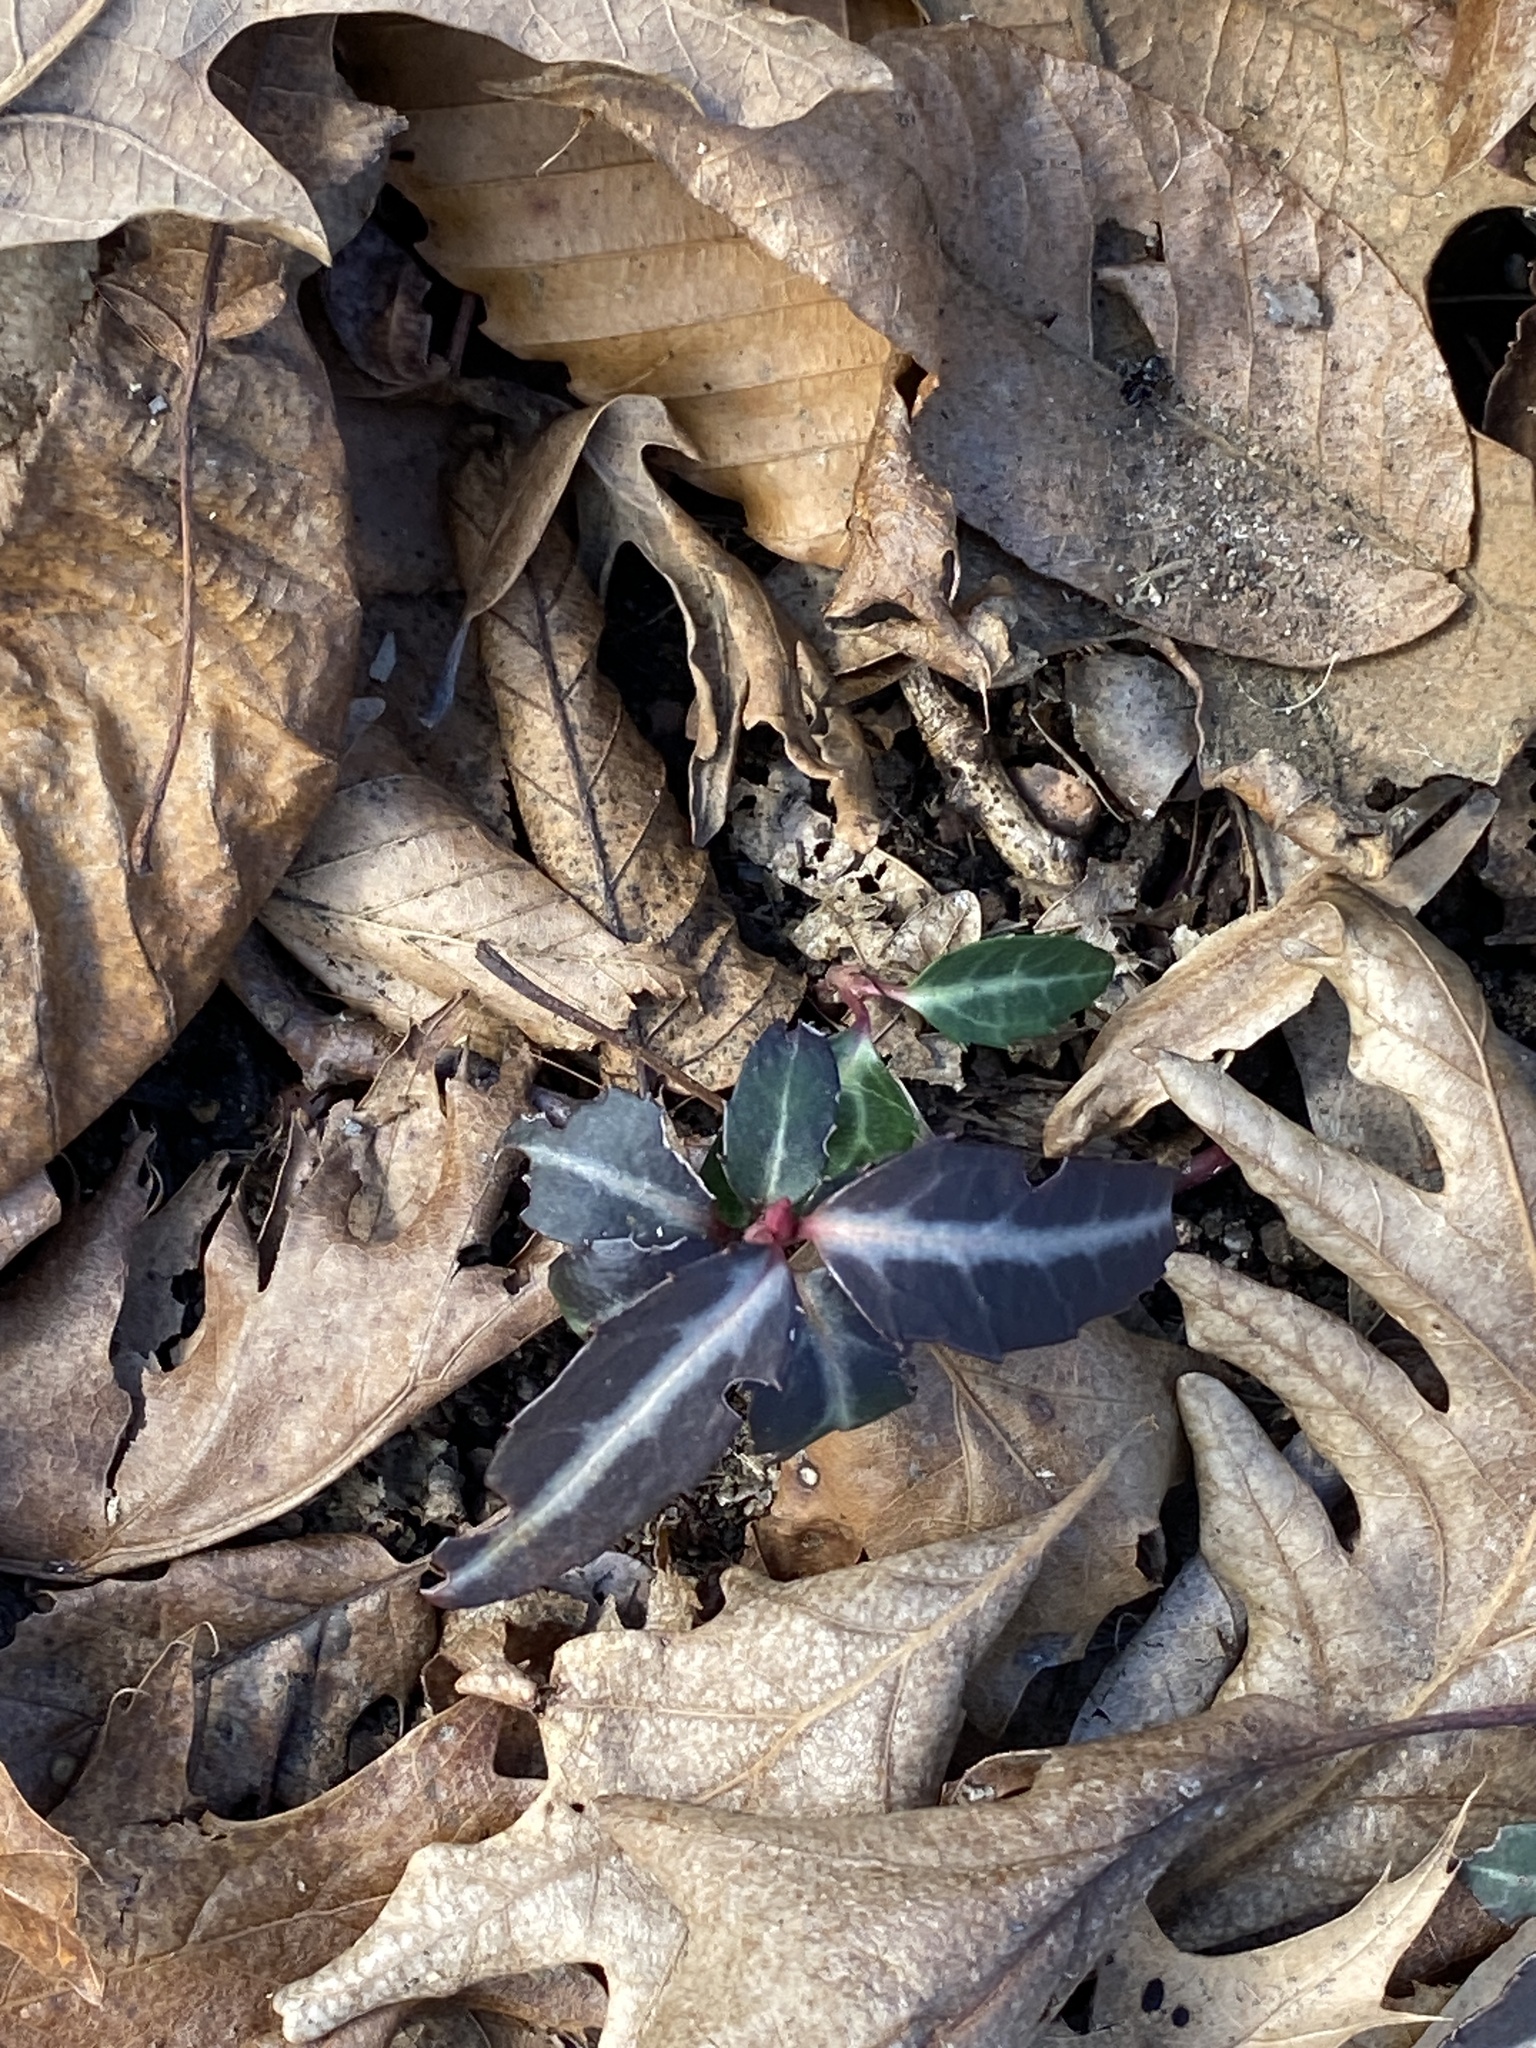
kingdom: Plantae
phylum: Tracheophyta
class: Magnoliopsida
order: Ericales
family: Ericaceae
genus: Chimaphila
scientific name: Chimaphila maculata
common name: Spotted pipsissewa
